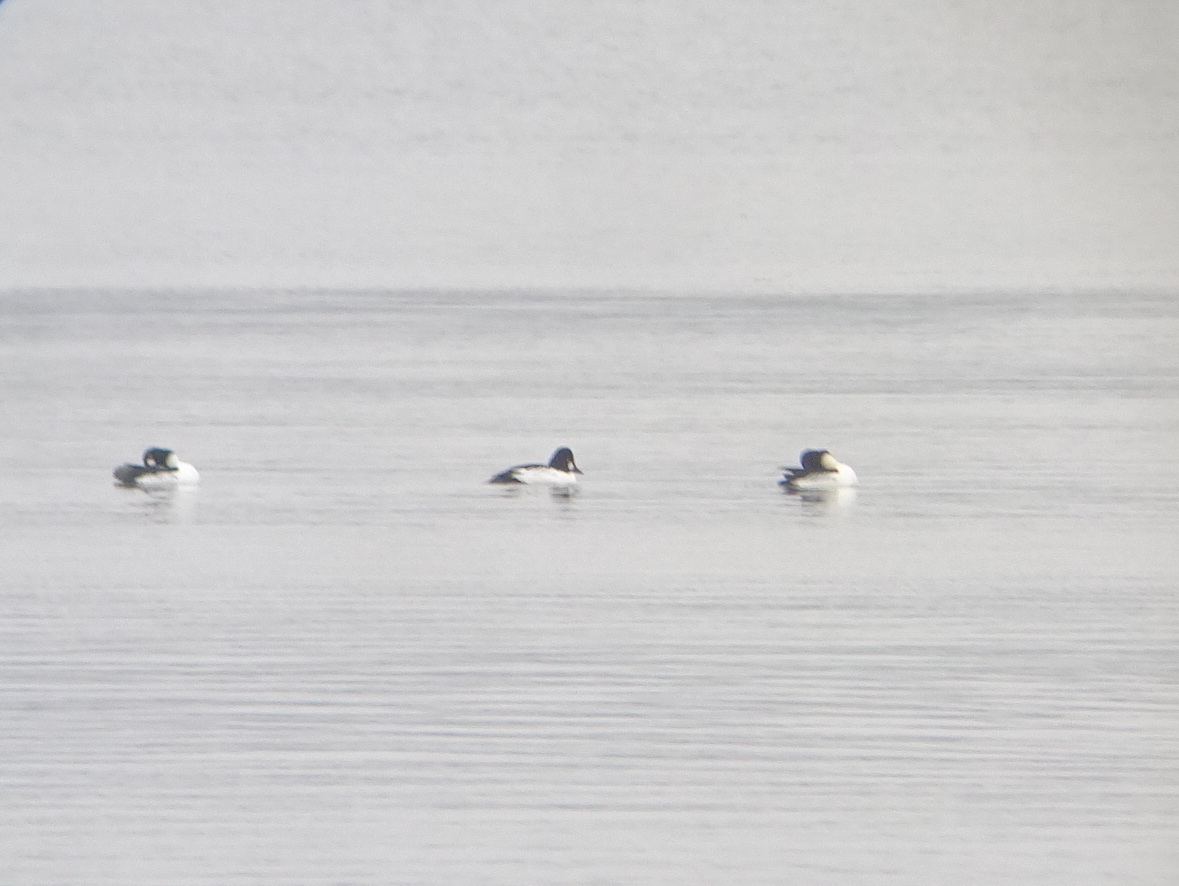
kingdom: Animalia
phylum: Chordata
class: Aves
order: Anseriformes
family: Anatidae
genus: Bucephala
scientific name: Bucephala clangula
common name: Common goldeneye
